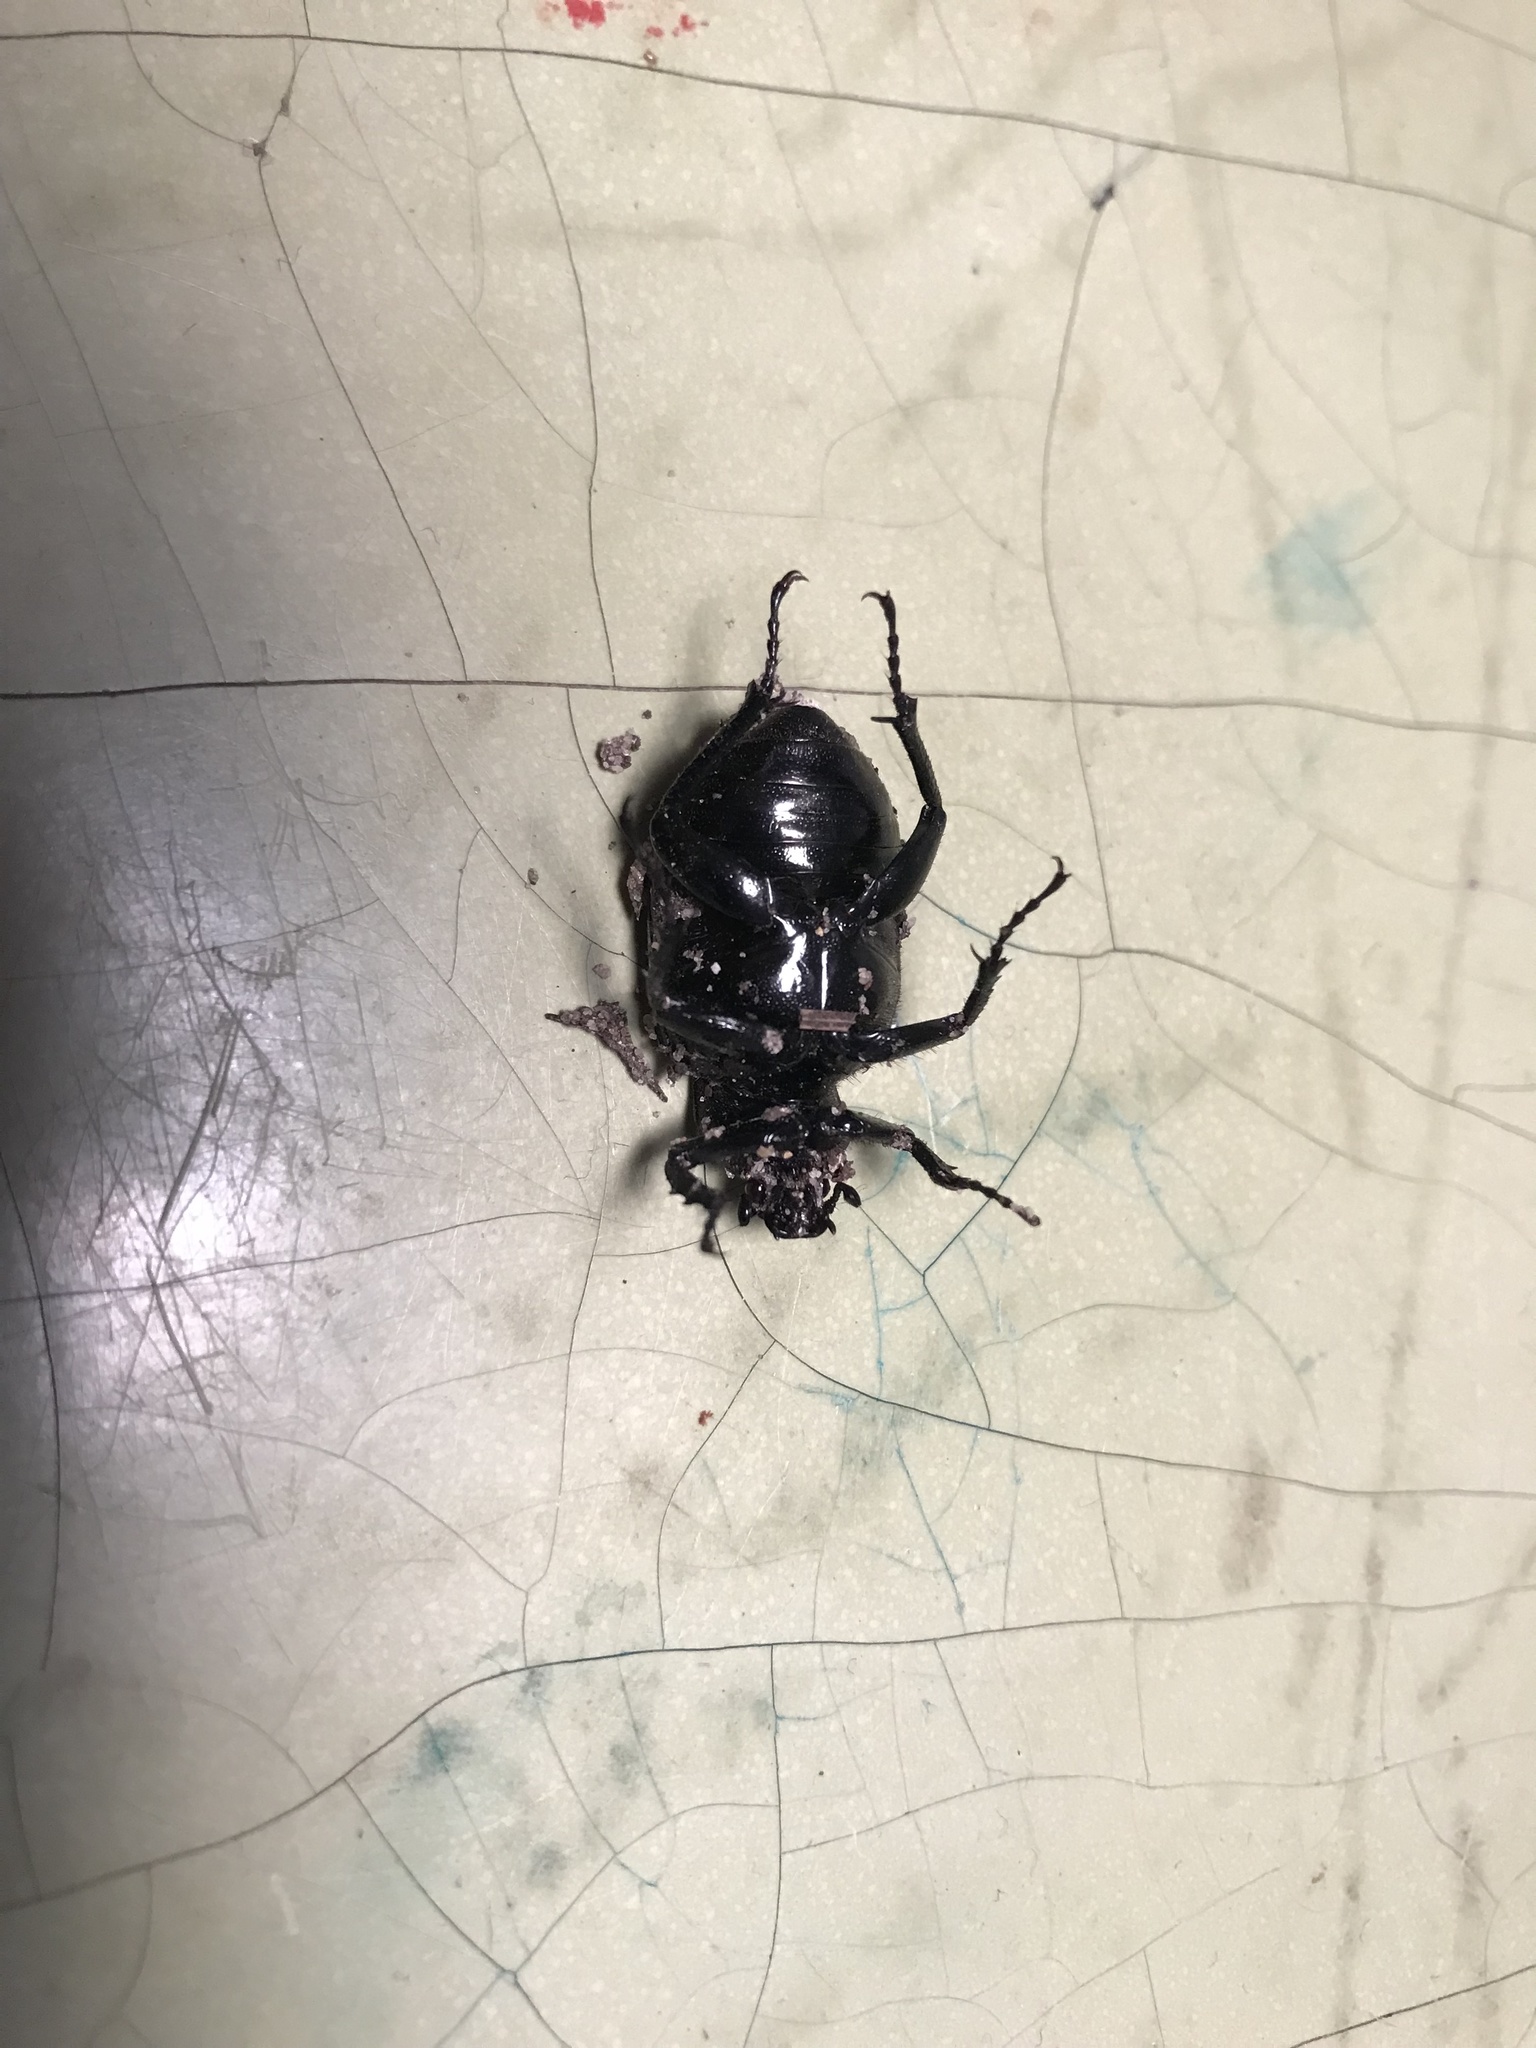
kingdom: Animalia
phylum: Arthropoda
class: Insecta
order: Coleoptera
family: Scarabaeidae
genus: Osmoderma
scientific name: Osmoderma scabra
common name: Rough hermit beetle
